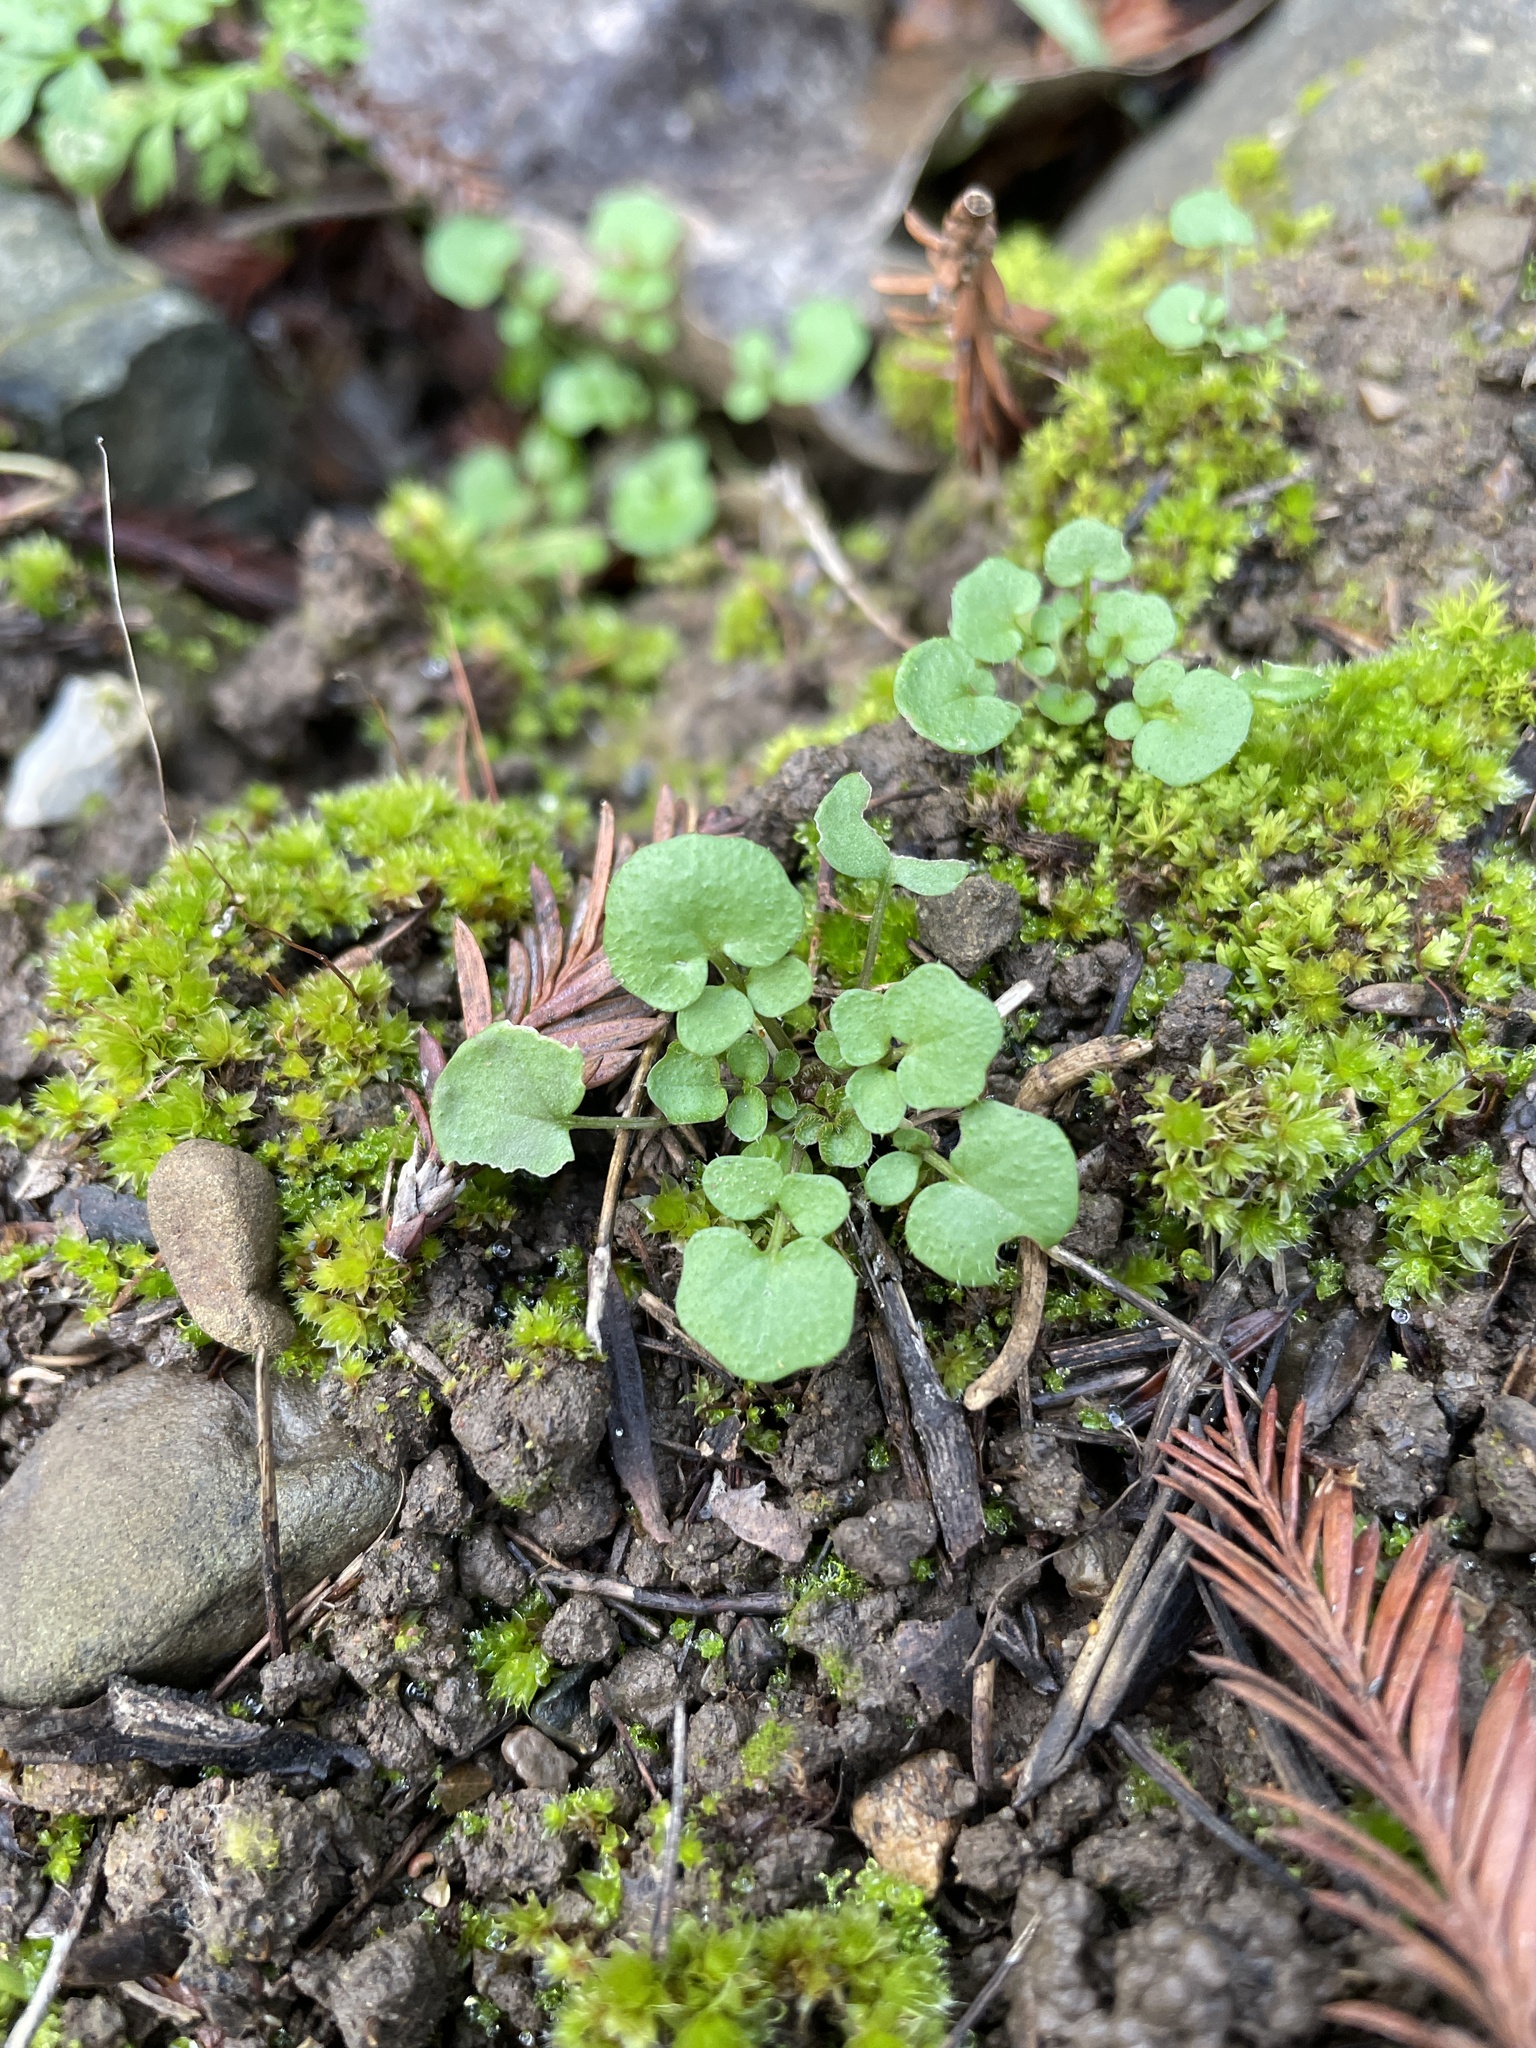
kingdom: Plantae
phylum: Tracheophyta
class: Magnoliopsida
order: Brassicales
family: Brassicaceae
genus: Cardamine
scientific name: Cardamine hirsuta
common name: Hairy bittercress
